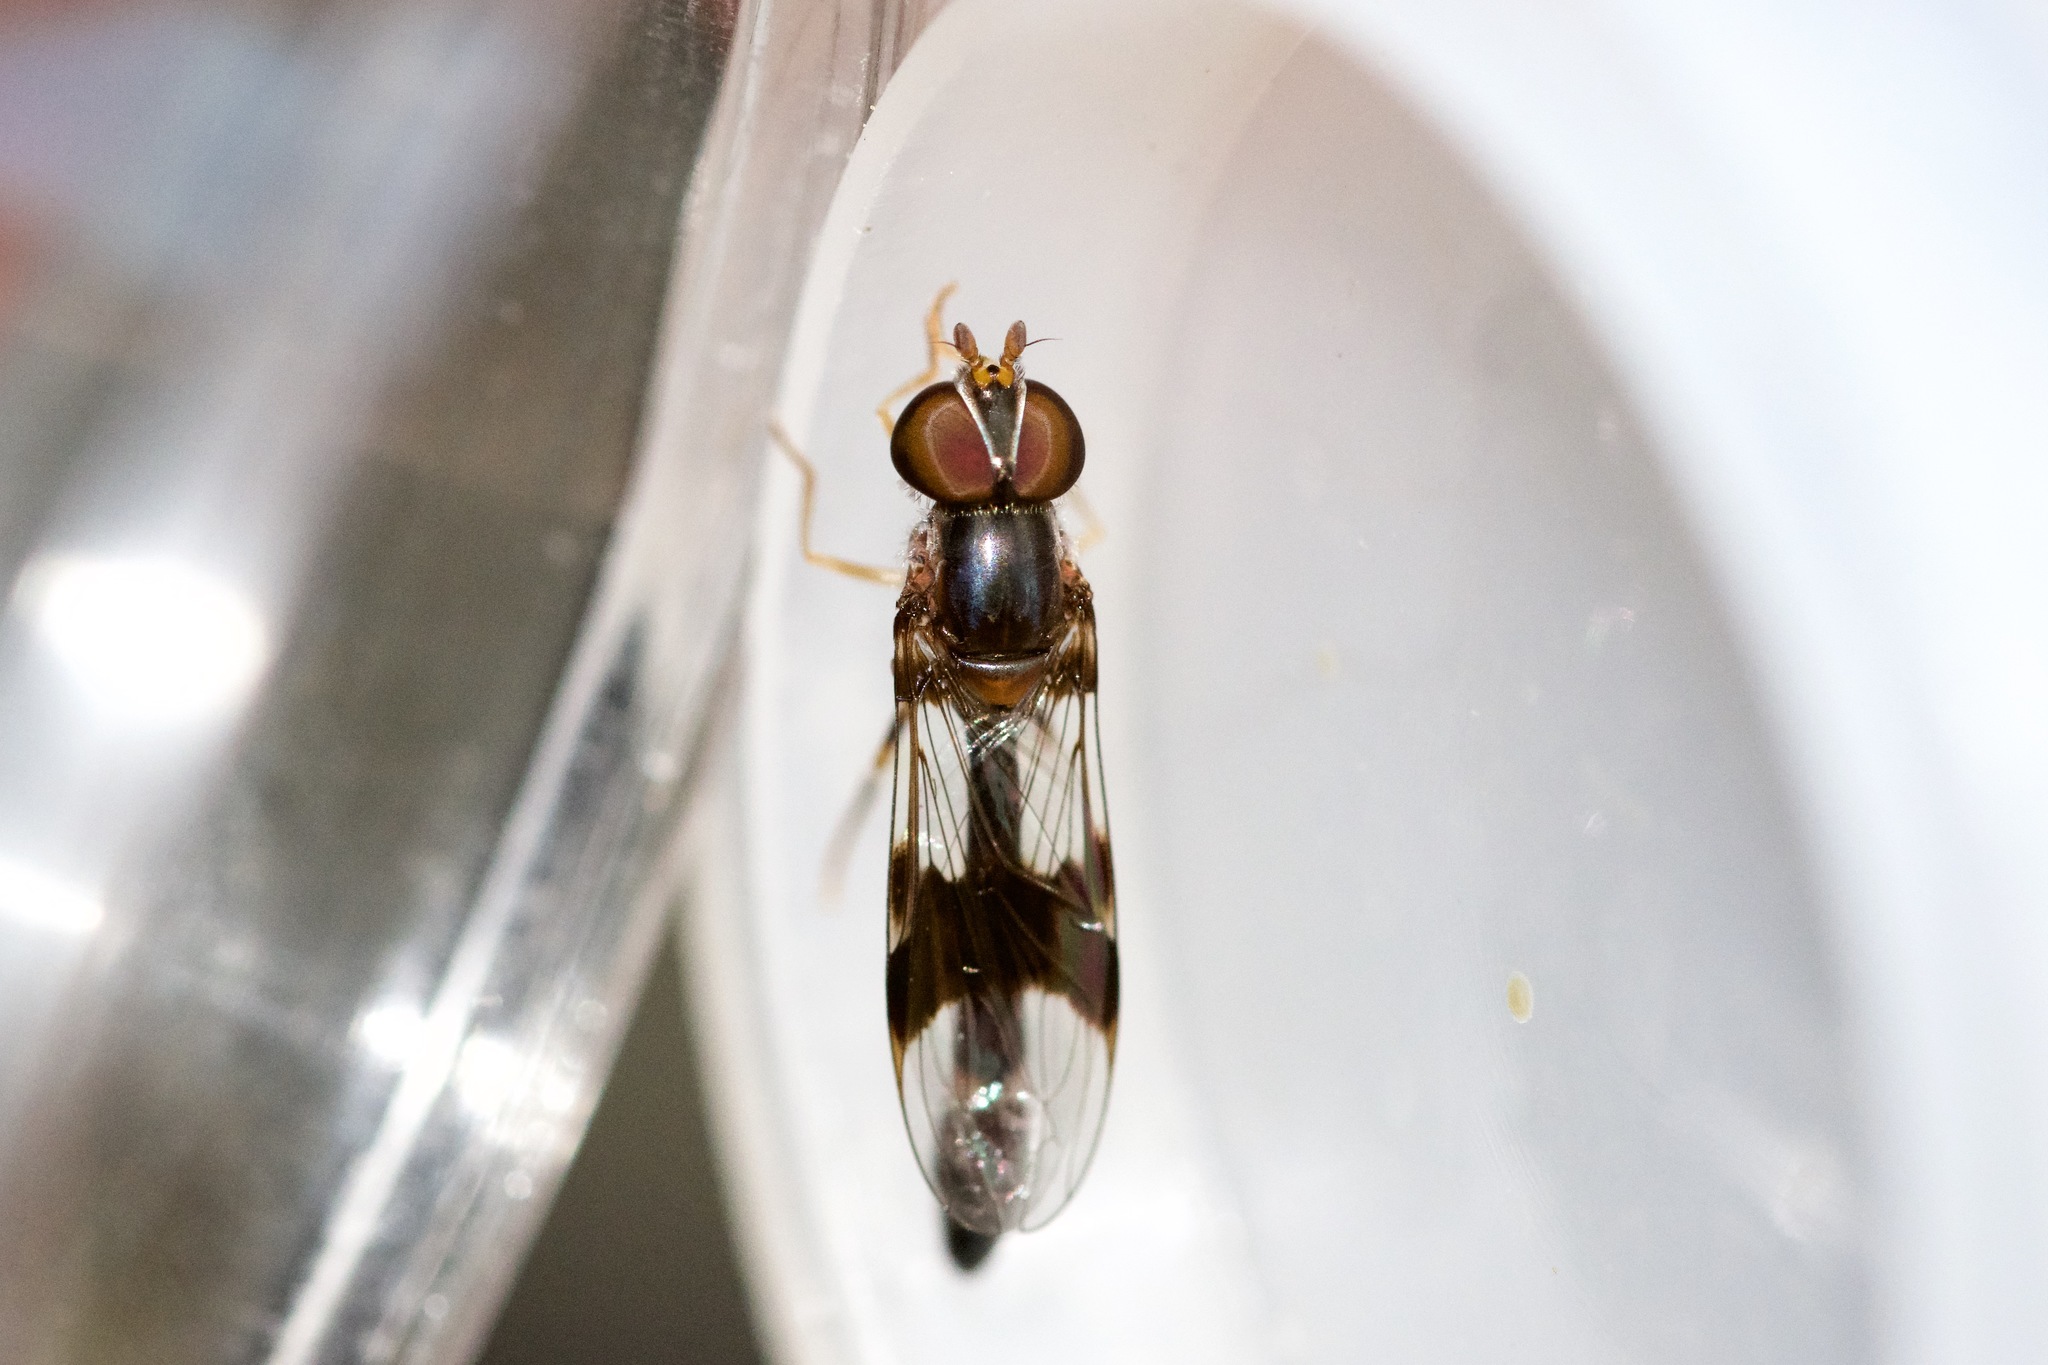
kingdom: Animalia
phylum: Arthropoda
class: Insecta
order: Diptera
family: Syrphidae
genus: Hypocritanus
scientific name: Hypocritanus fascipennis
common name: Eastern band-winged hover fly
